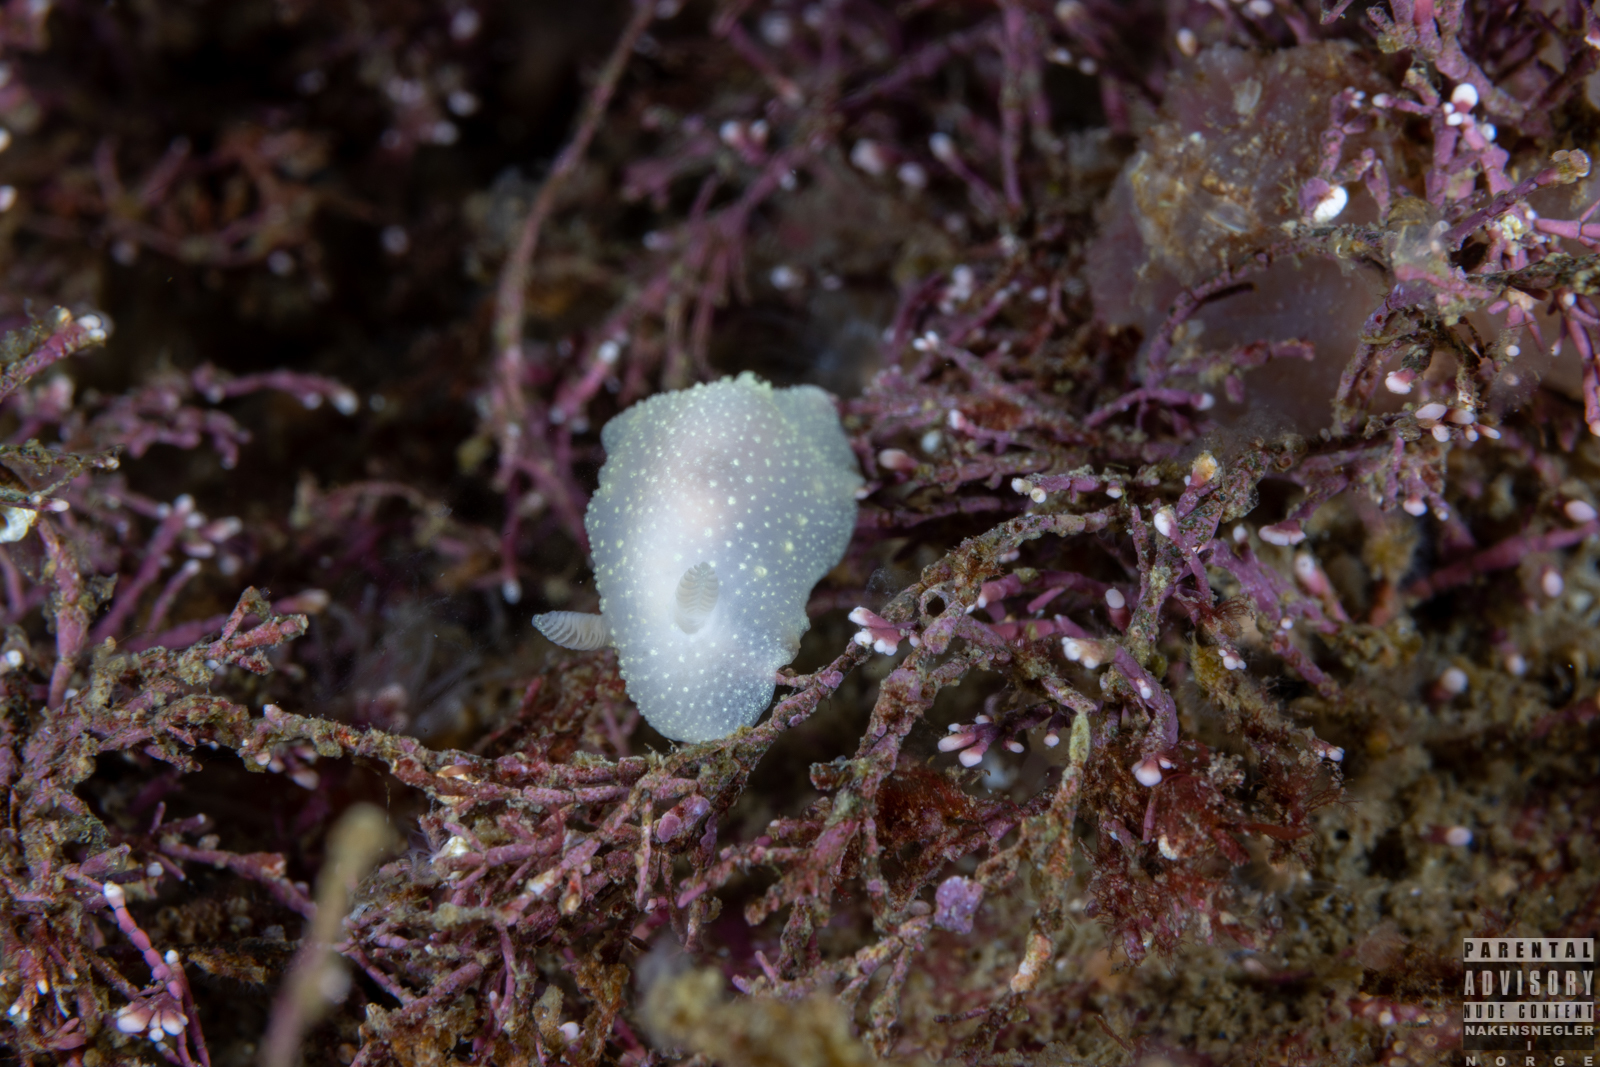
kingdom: Animalia
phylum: Mollusca
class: Gastropoda
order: Nudibranchia
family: Cadlinidae
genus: Cadlina
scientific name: Cadlina laevis
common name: White atlantic cadlina
